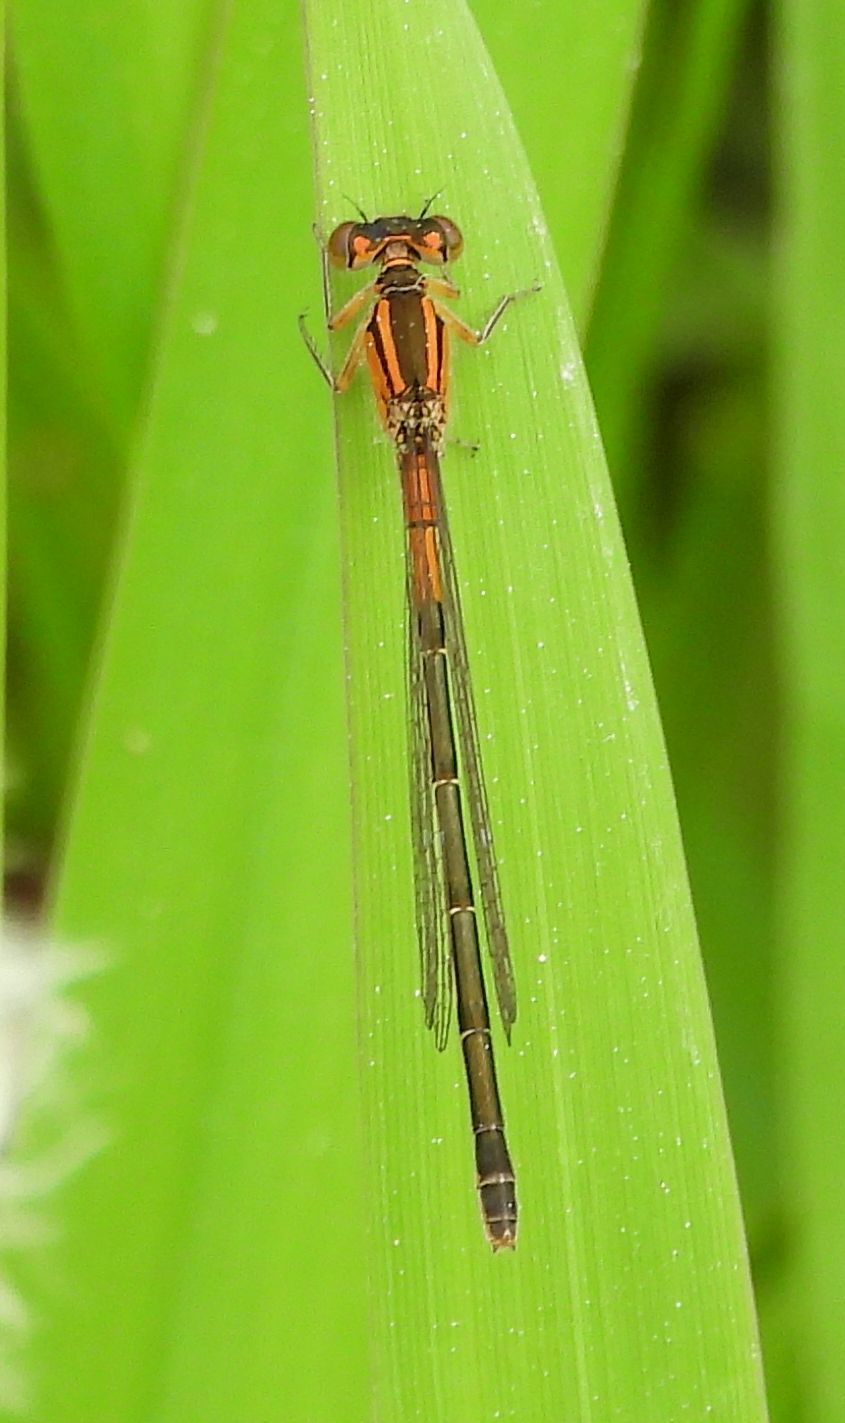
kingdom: Animalia
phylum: Arthropoda
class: Insecta
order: Odonata
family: Coenagrionidae
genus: Ischnura
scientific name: Ischnura verticalis
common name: Eastern forktail
